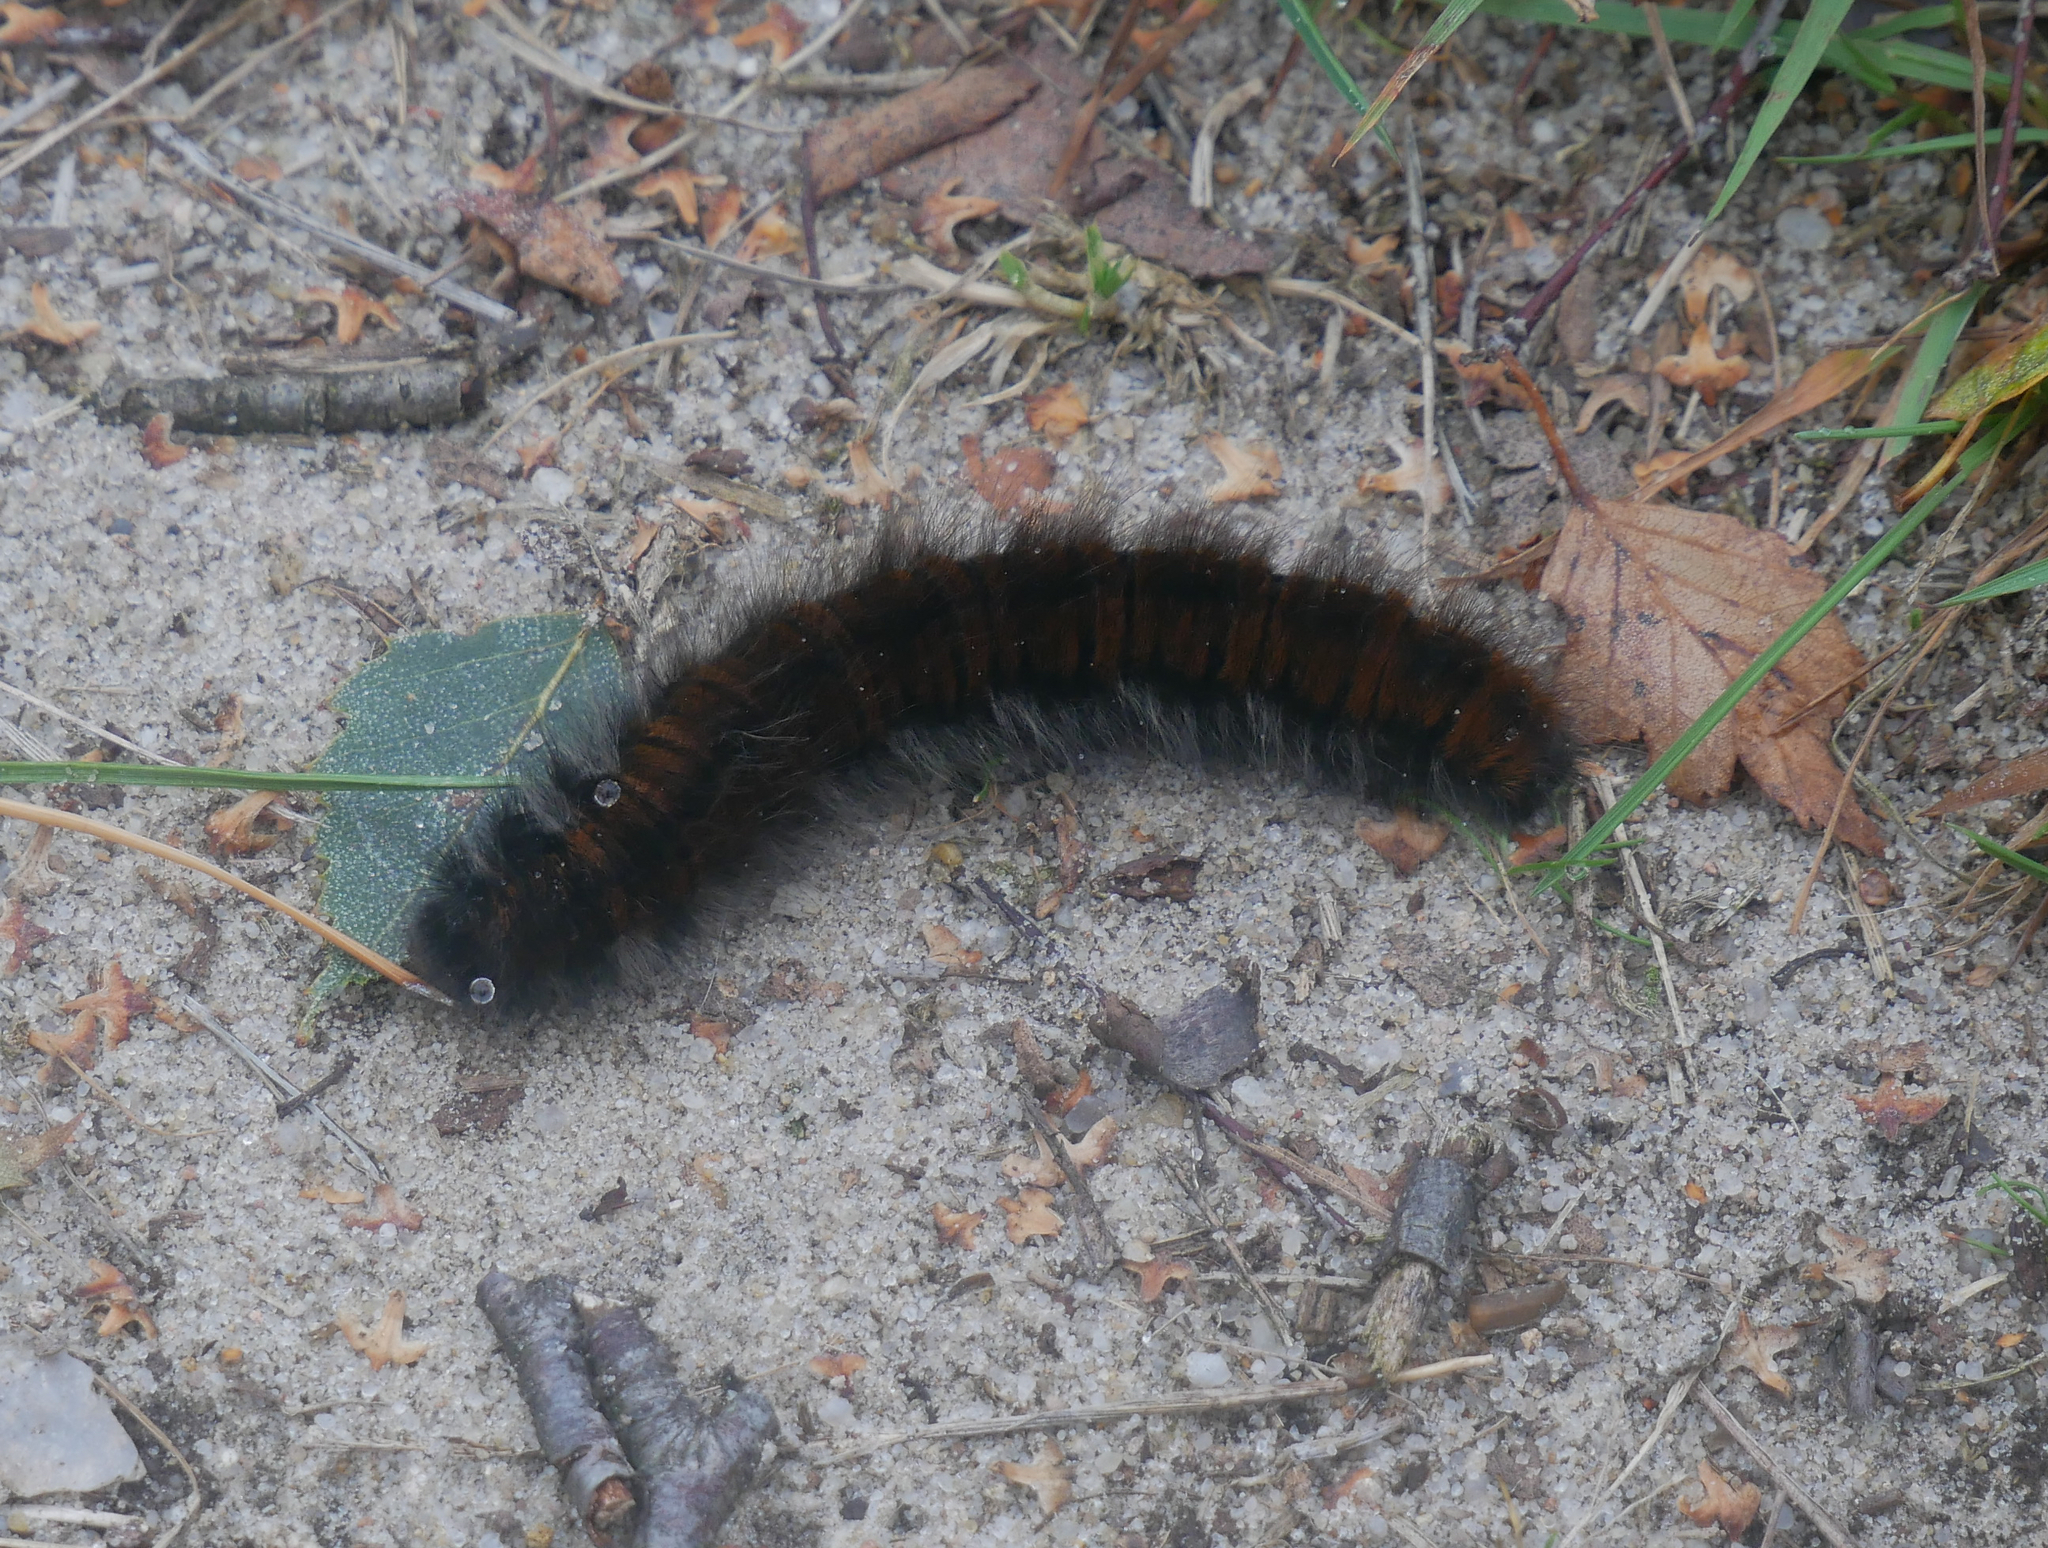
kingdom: Animalia
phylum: Arthropoda
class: Insecta
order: Lepidoptera
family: Lasiocampidae
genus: Macrothylacia
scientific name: Macrothylacia rubi
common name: Fox moth
